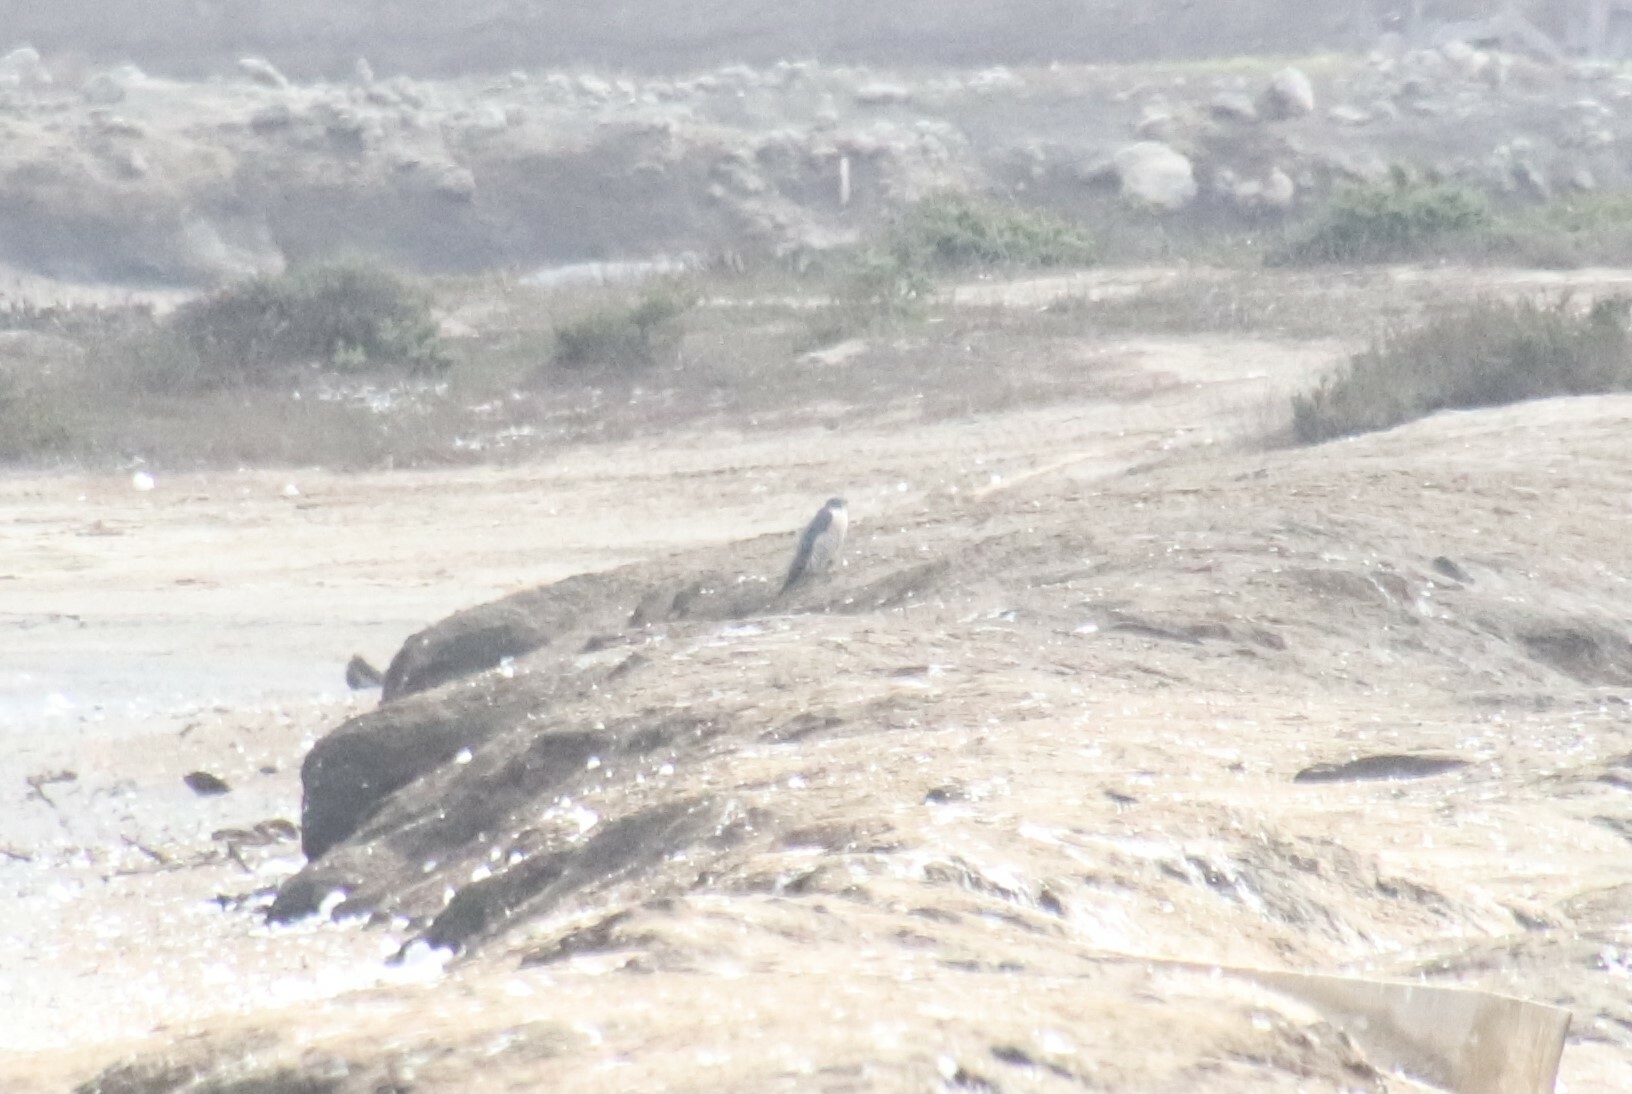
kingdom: Animalia
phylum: Chordata
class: Aves
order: Falconiformes
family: Falconidae
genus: Falco
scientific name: Falco peregrinus
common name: Peregrine falcon
